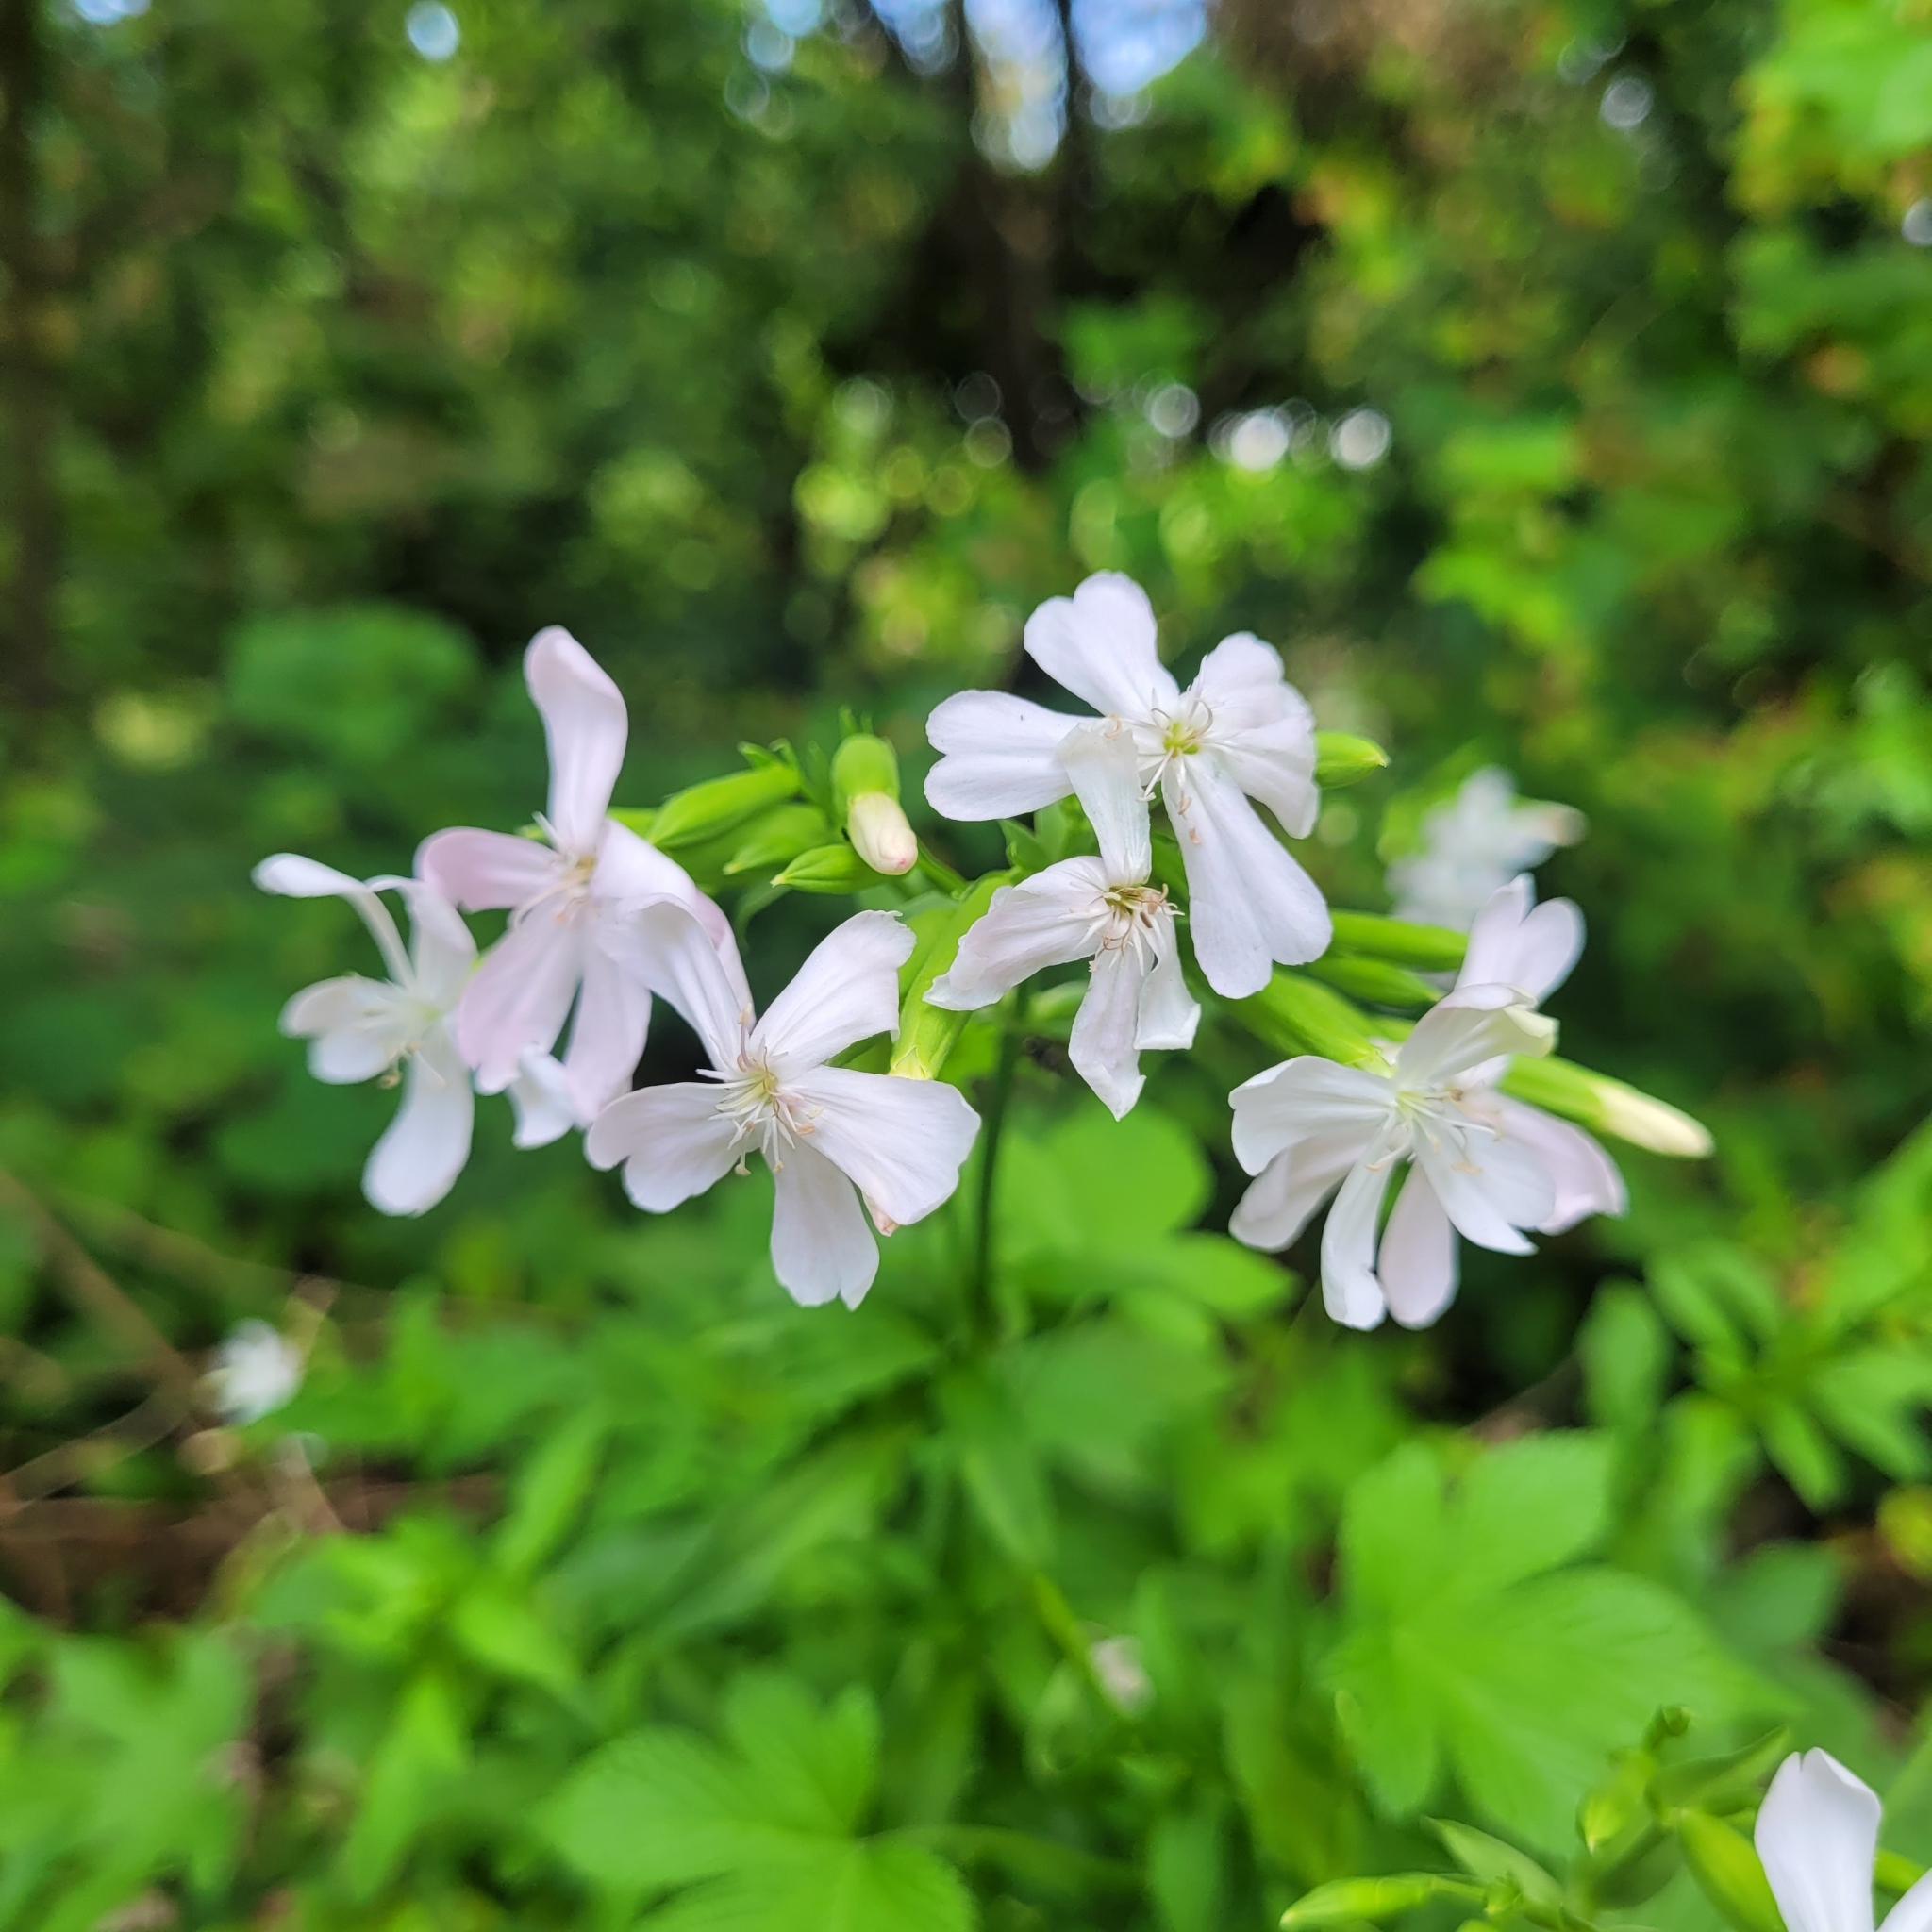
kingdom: Plantae
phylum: Tracheophyta
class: Magnoliopsida
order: Caryophyllales
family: Caryophyllaceae
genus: Saponaria
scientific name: Saponaria officinalis
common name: Soapwort
